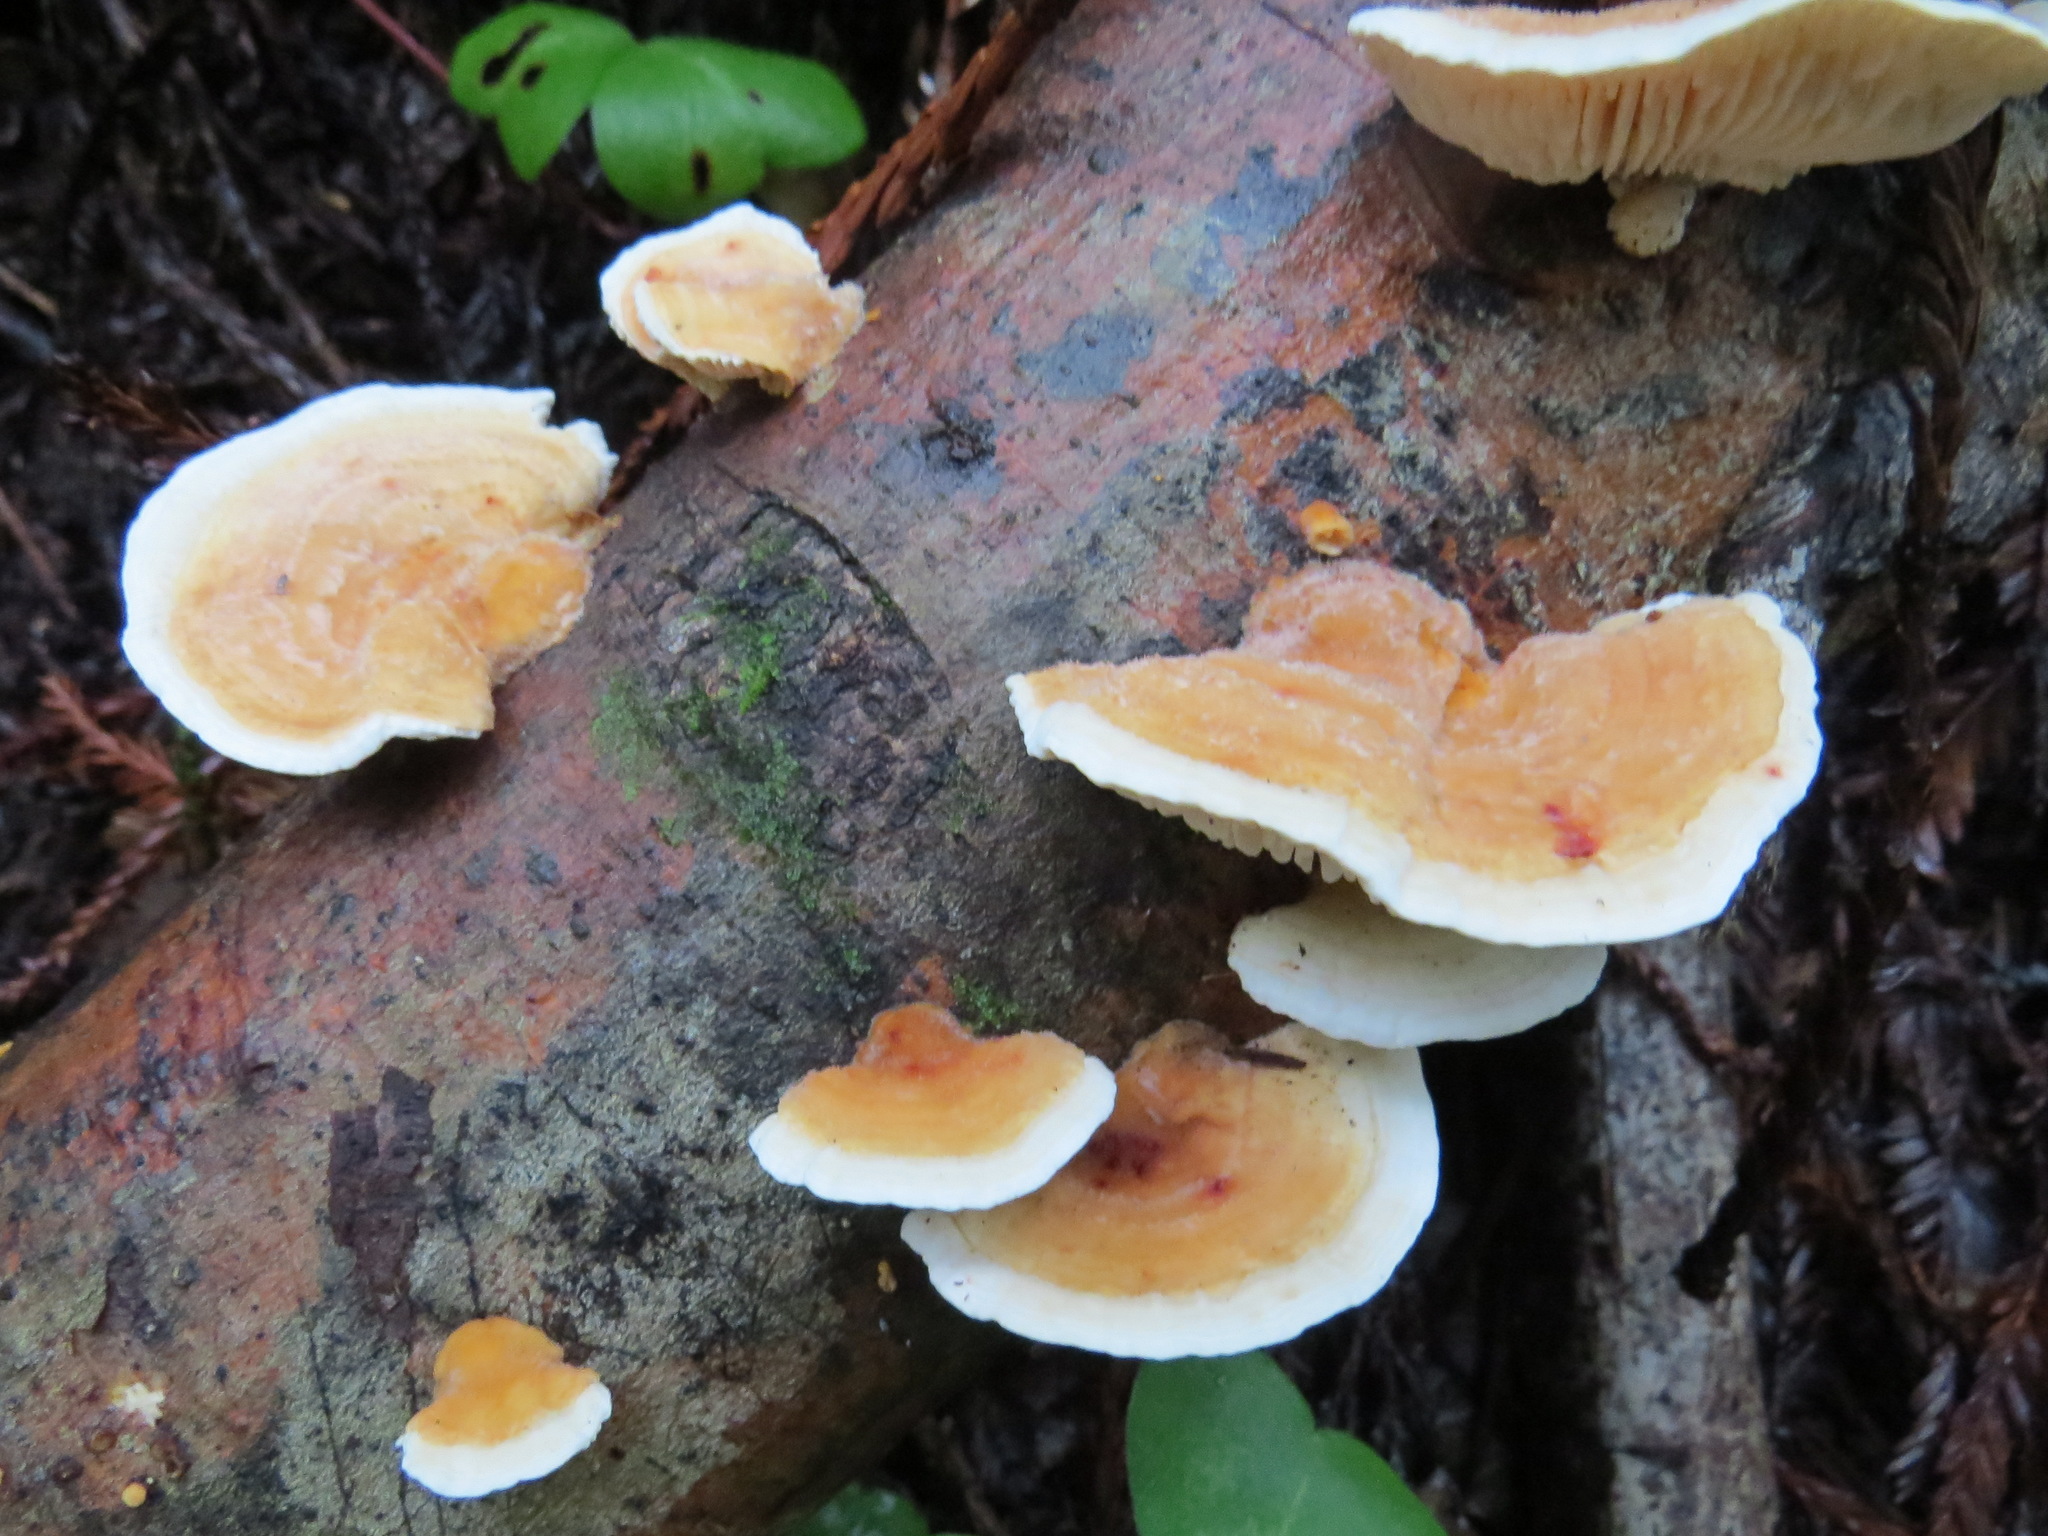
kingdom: Fungi
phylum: Basidiomycota
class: Agaricomycetes
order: Polyporales
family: Polyporaceae
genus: Lenzites
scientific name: Lenzites betulinus
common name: Birch mazegill
